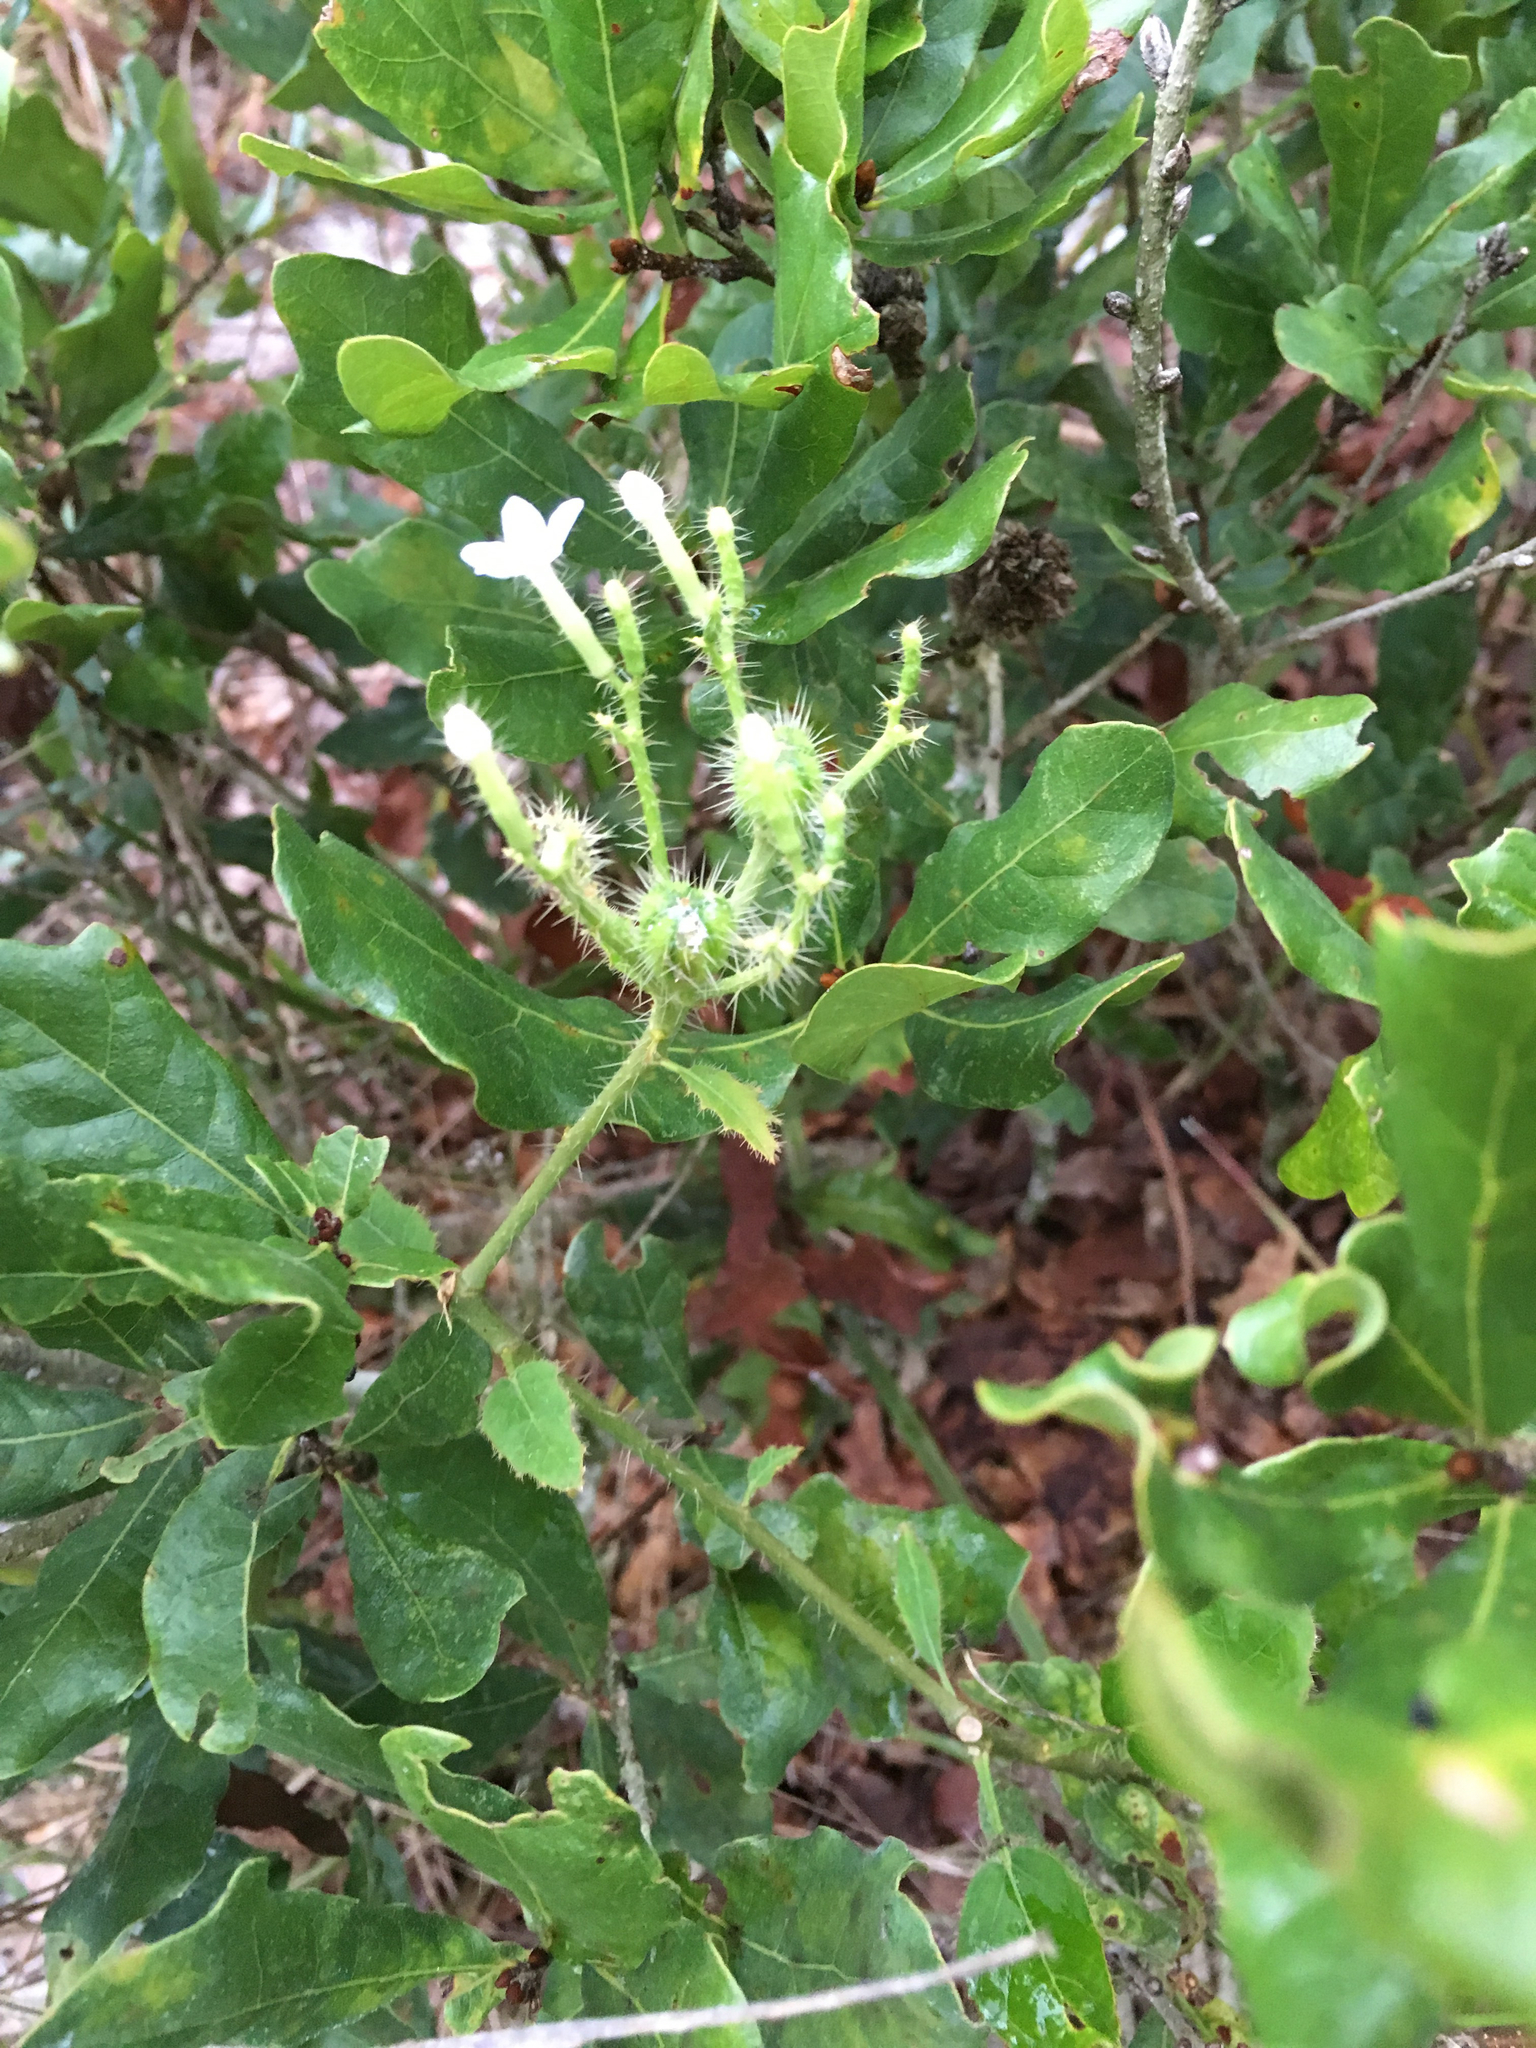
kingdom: Plantae
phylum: Tracheophyta
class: Magnoliopsida
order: Malpighiales
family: Euphorbiaceae
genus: Cnidoscolus
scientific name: Cnidoscolus stimulosus
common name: Bull-nettle
